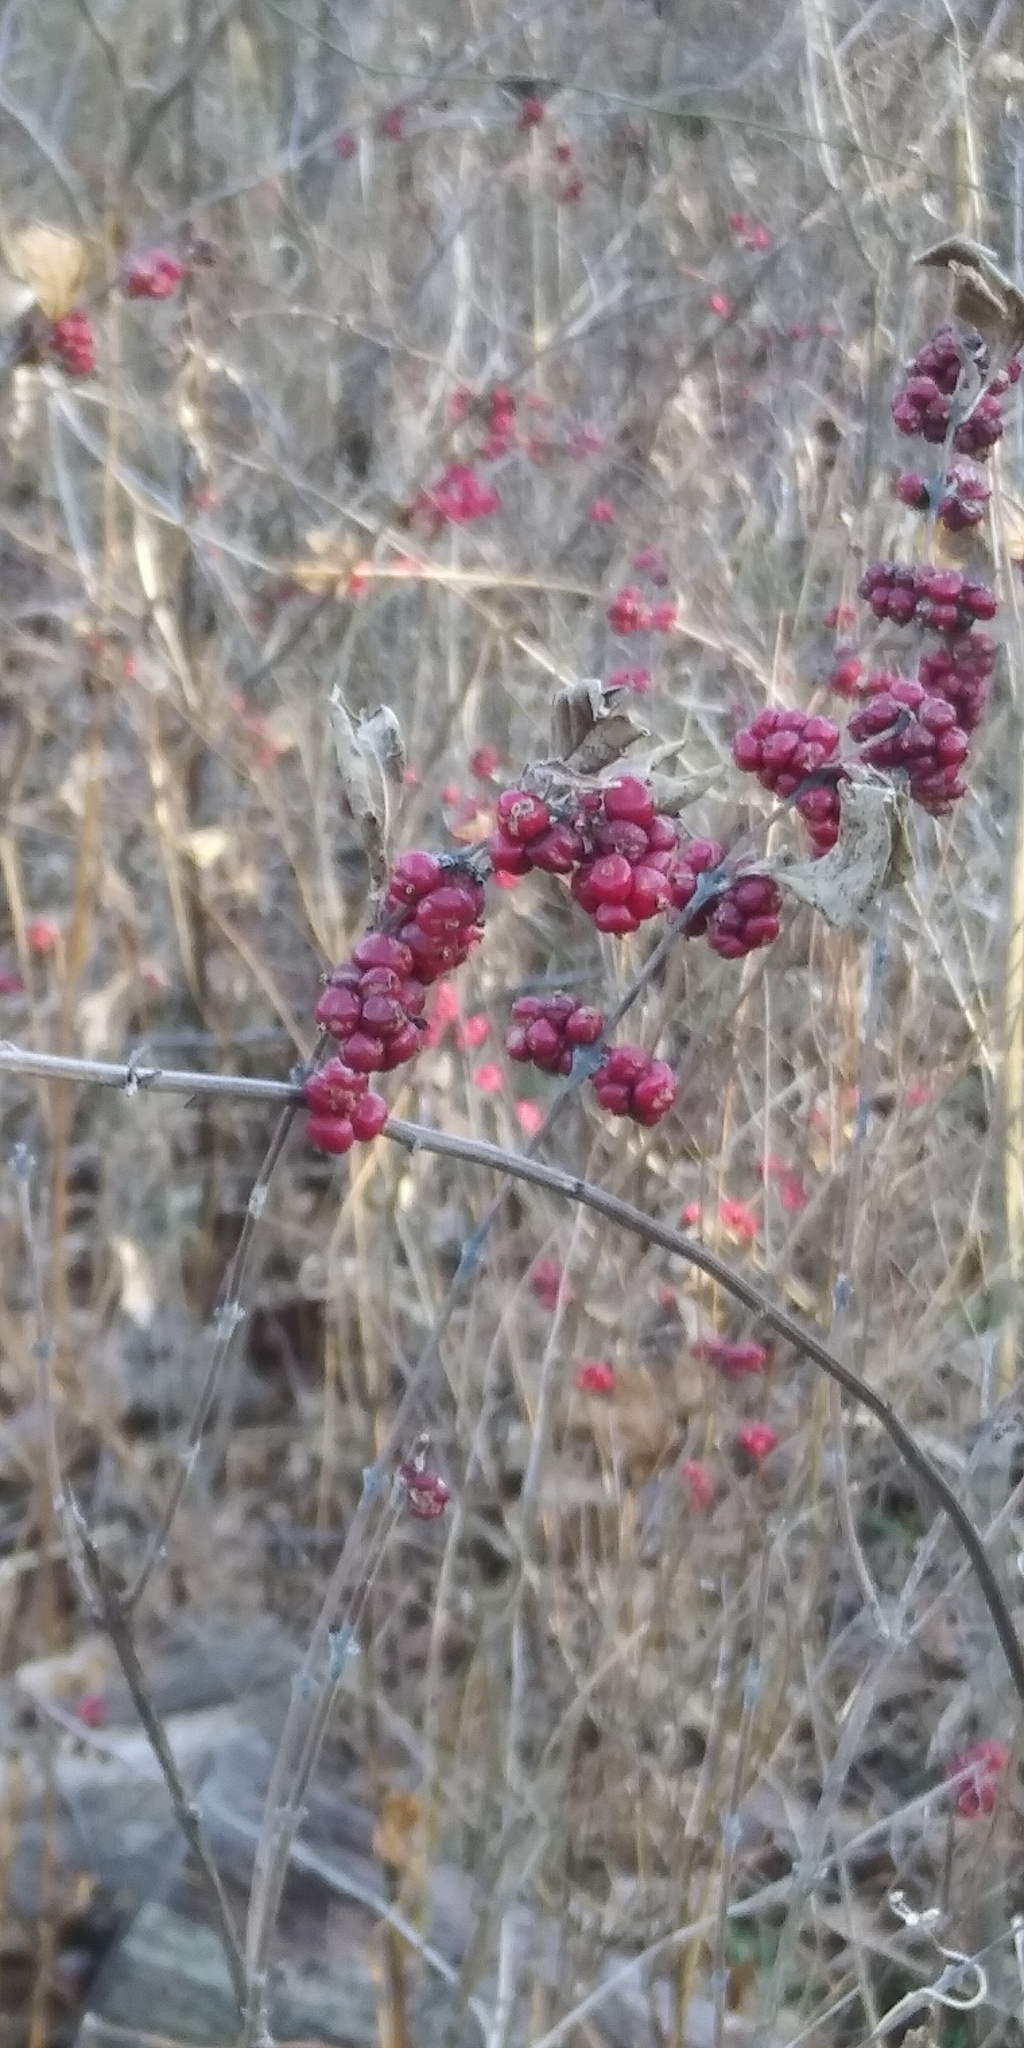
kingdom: Plantae
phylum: Tracheophyta
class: Magnoliopsida
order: Dipsacales
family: Caprifoliaceae
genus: Symphoricarpos
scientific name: Symphoricarpos orbiculatus
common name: Coralberry
